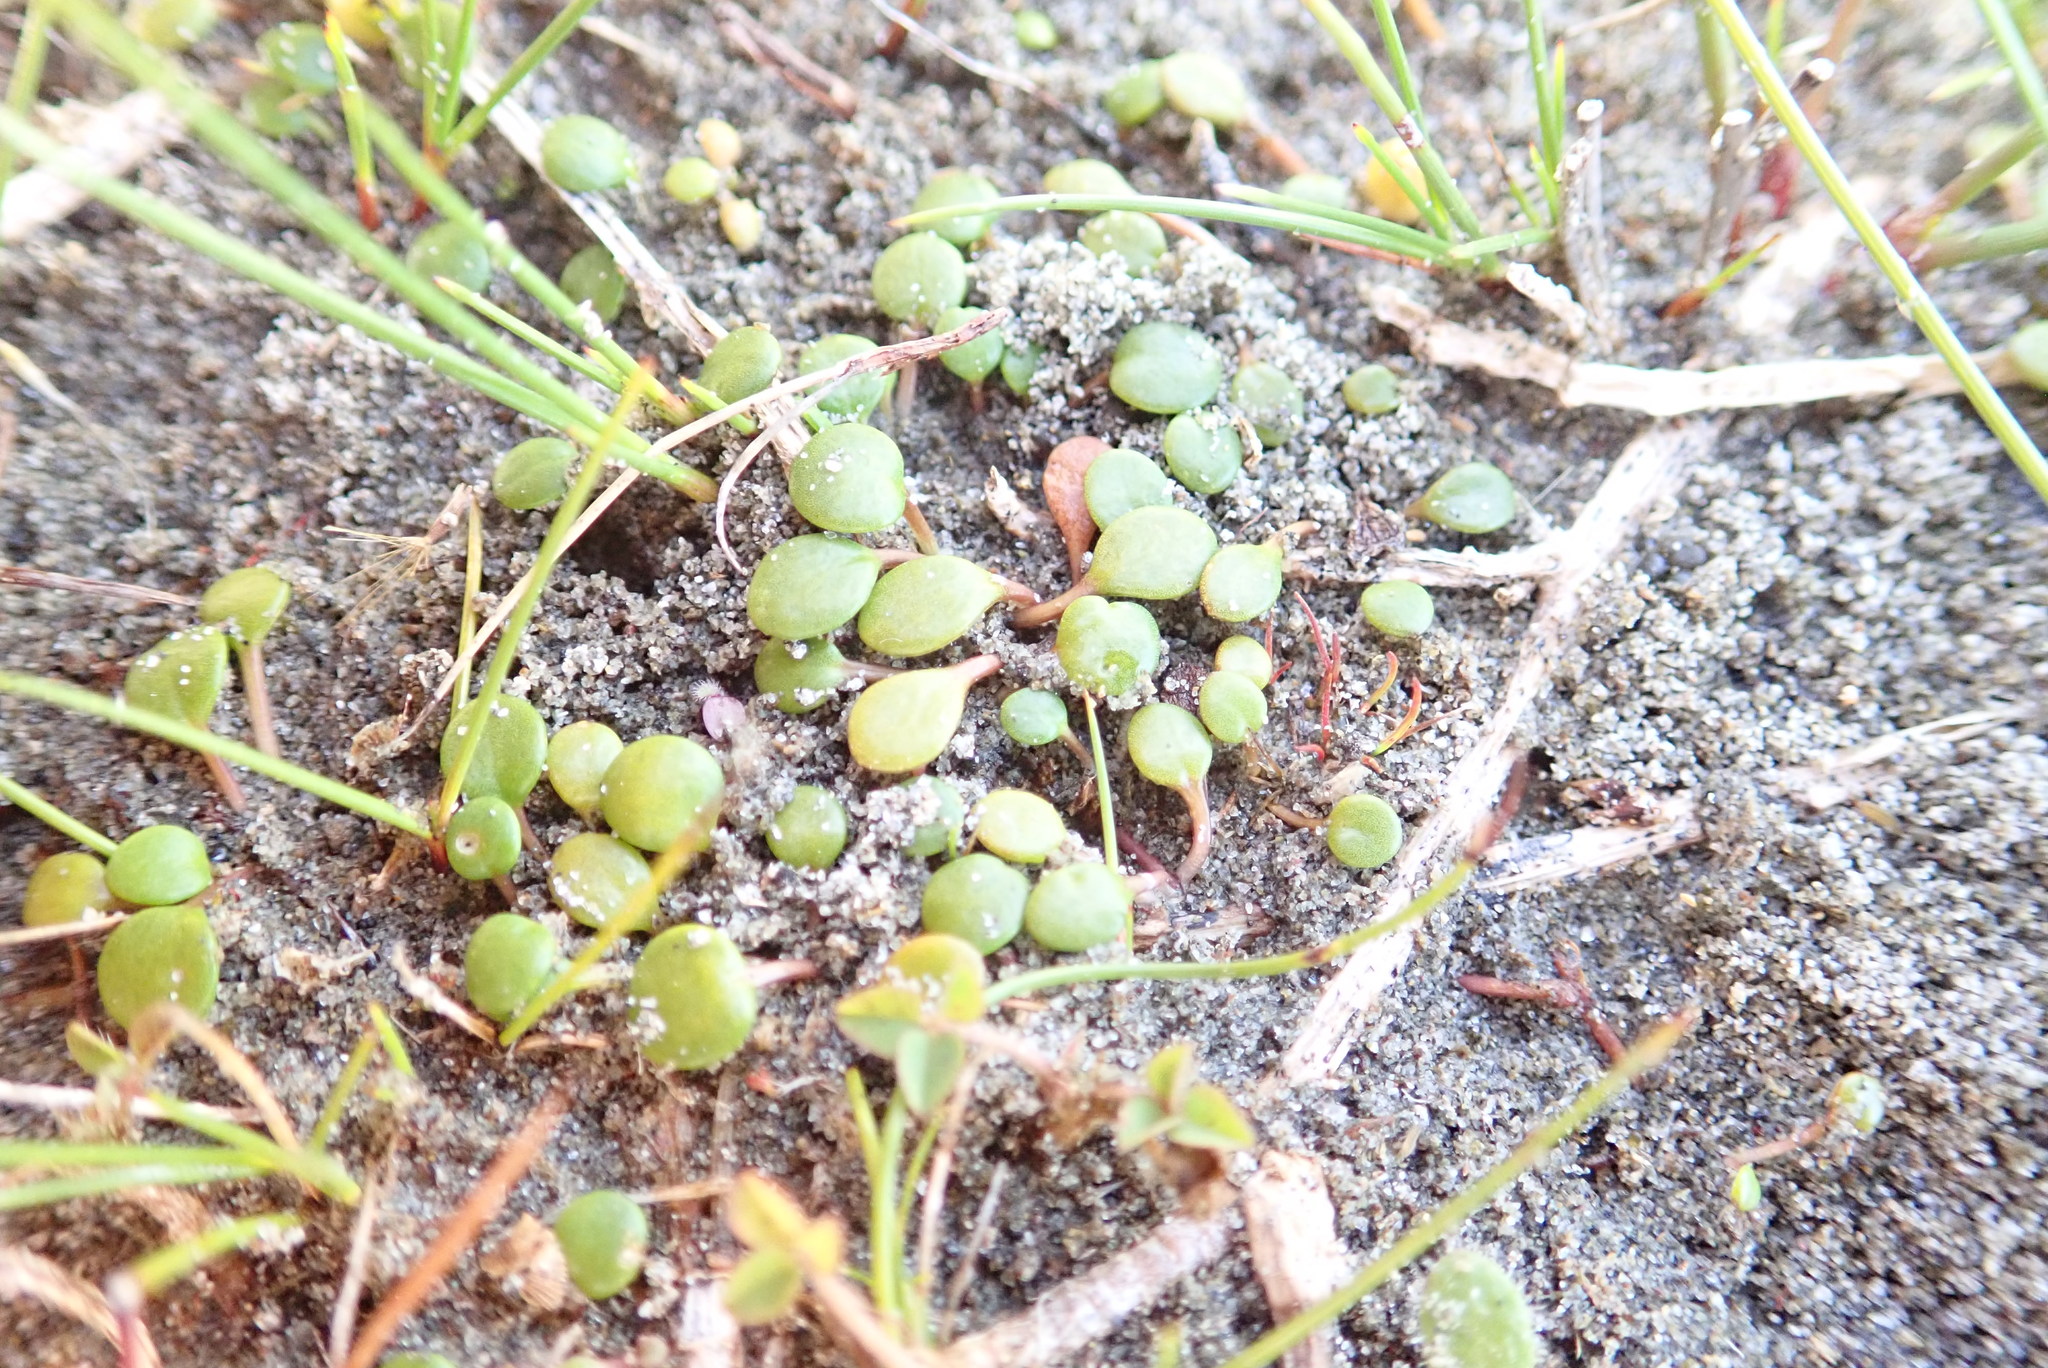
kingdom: Plantae
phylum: Tracheophyta
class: Magnoliopsida
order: Asterales
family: Goodeniaceae
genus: Goodenia
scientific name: Goodenia heenanii
